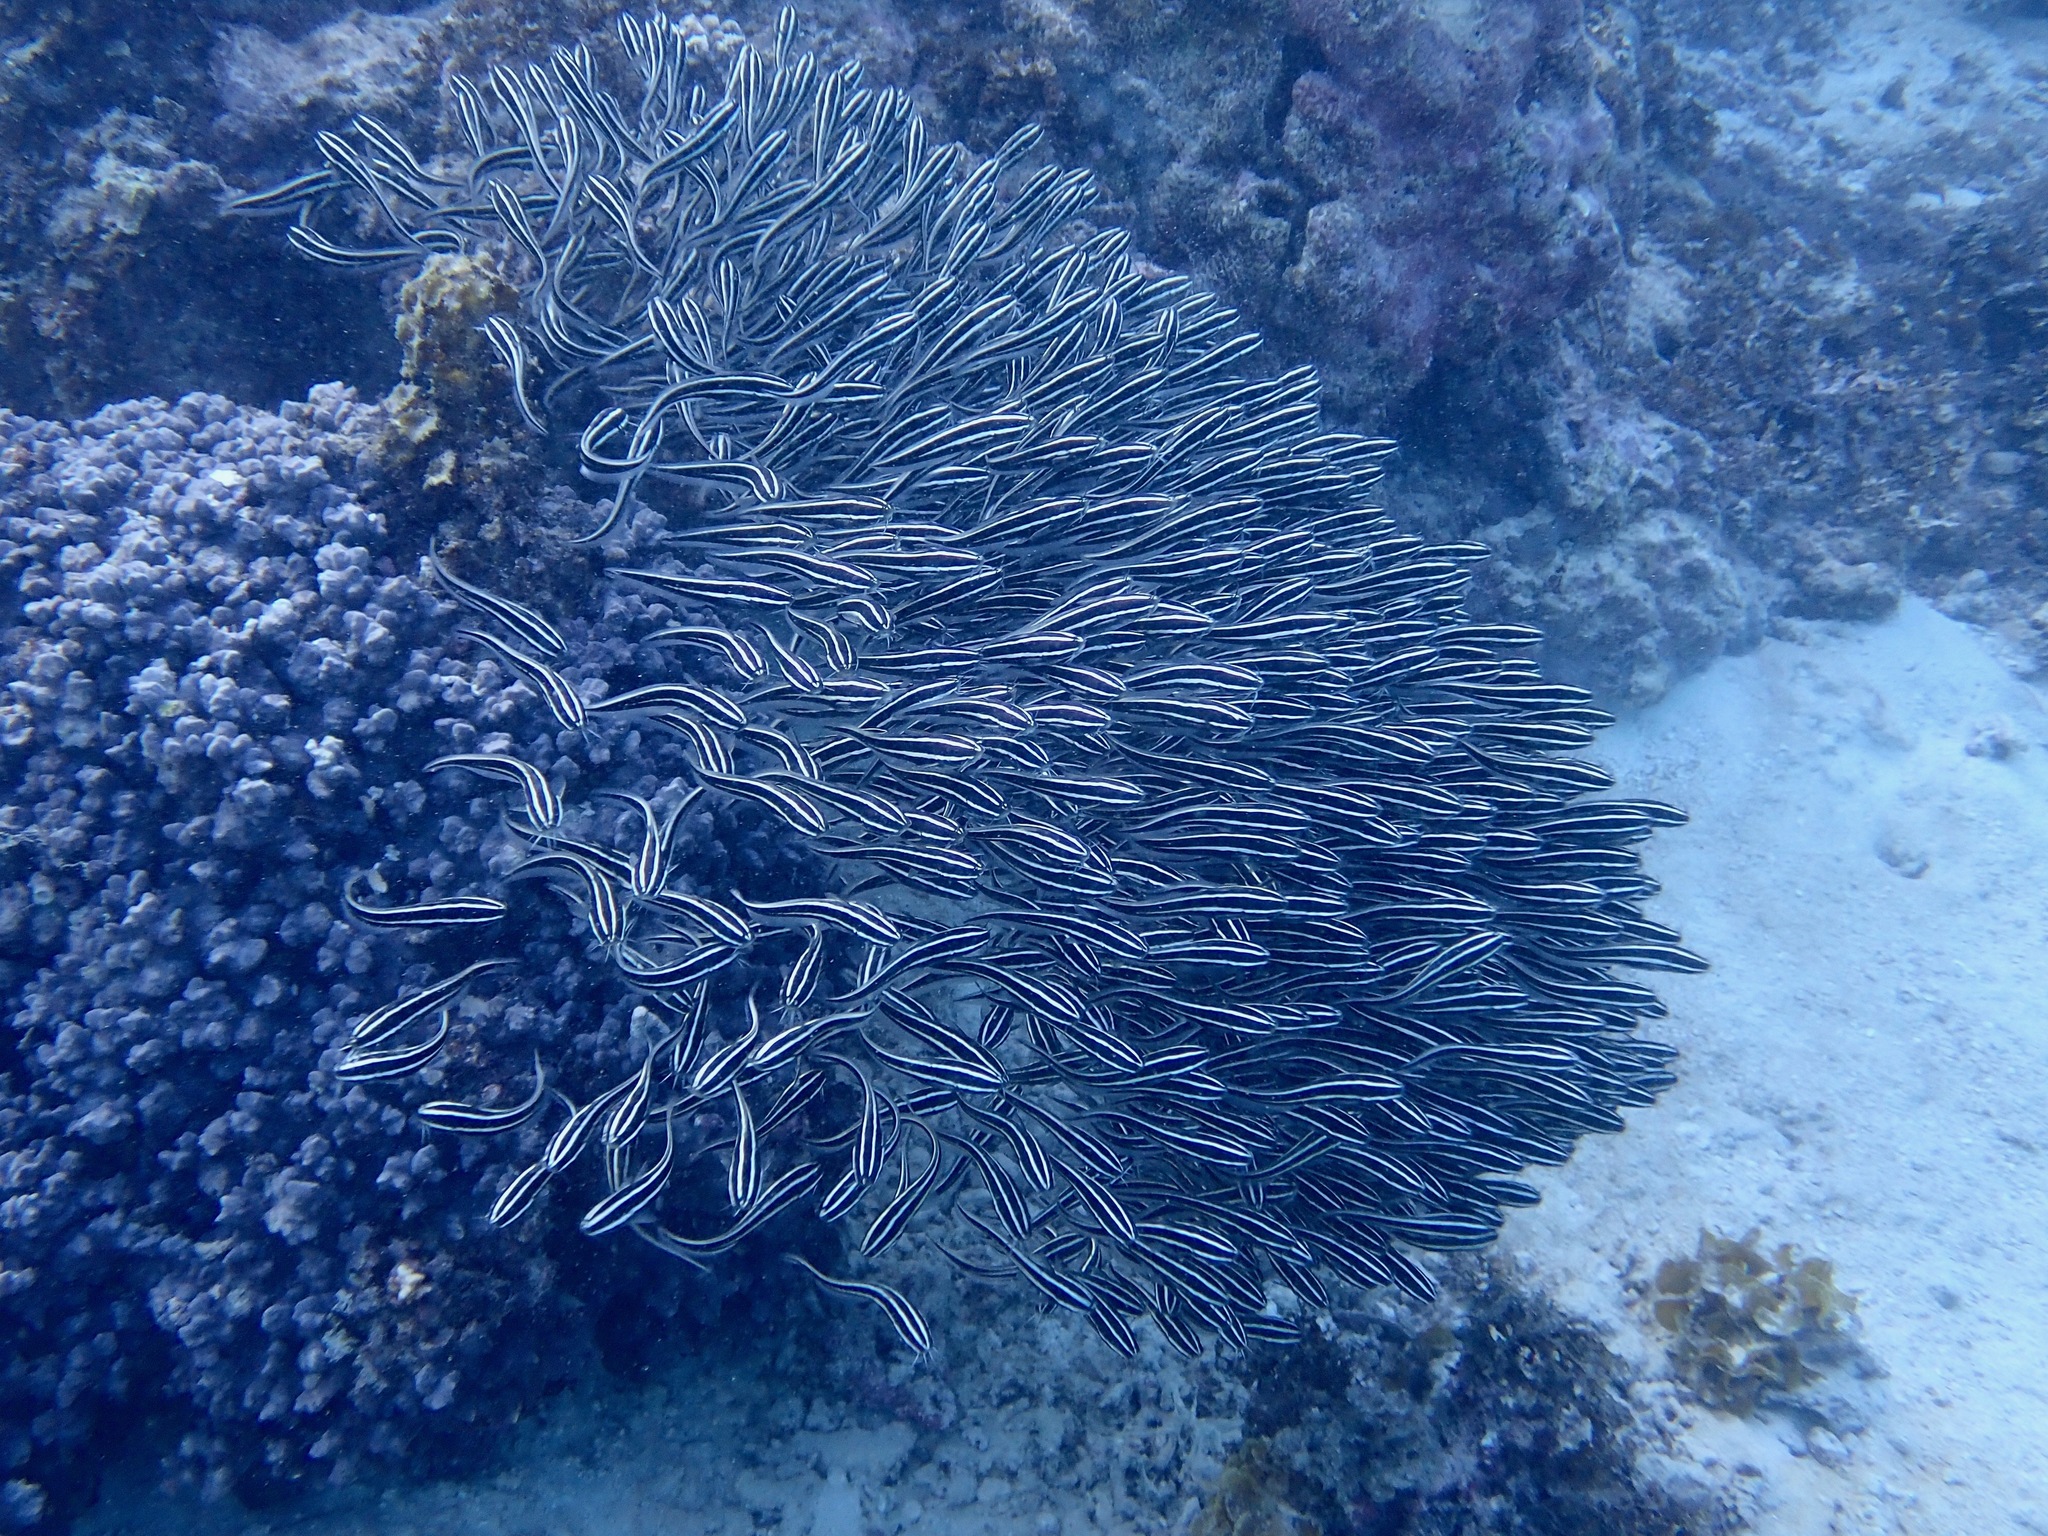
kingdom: Animalia
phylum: Chordata
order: Siluriformes
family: Plotosidae
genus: Plotosus
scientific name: Plotosus lineatus
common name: Striped eel catfish
